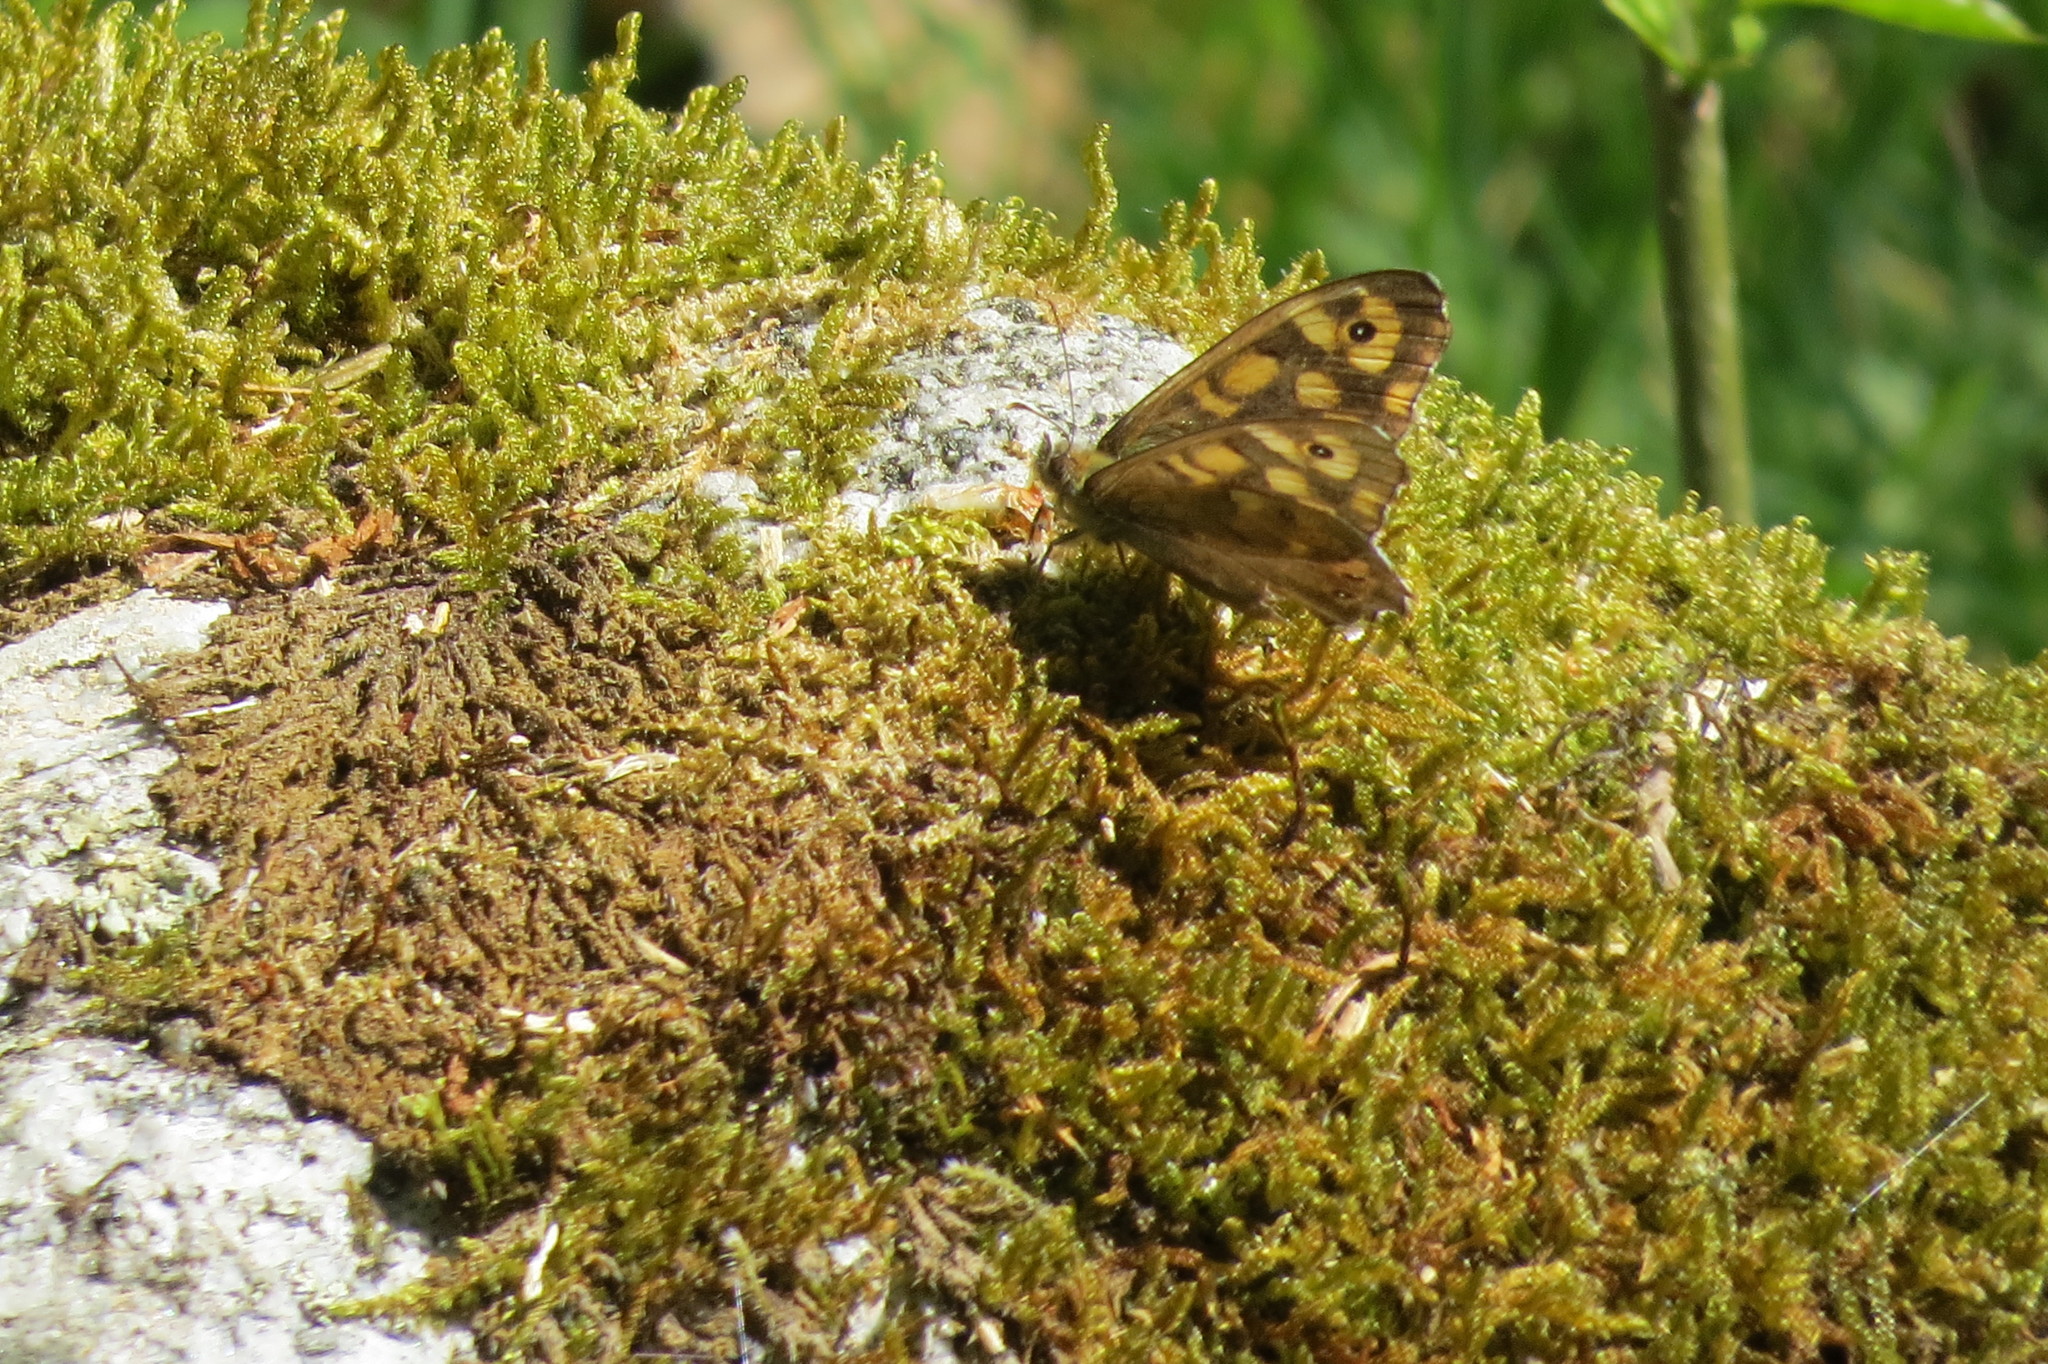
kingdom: Animalia
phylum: Arthropoda
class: Insecta
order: Lepidoptera
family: Nymphalidae
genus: Pararge
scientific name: Pararge aegeria
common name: Speckled wood
